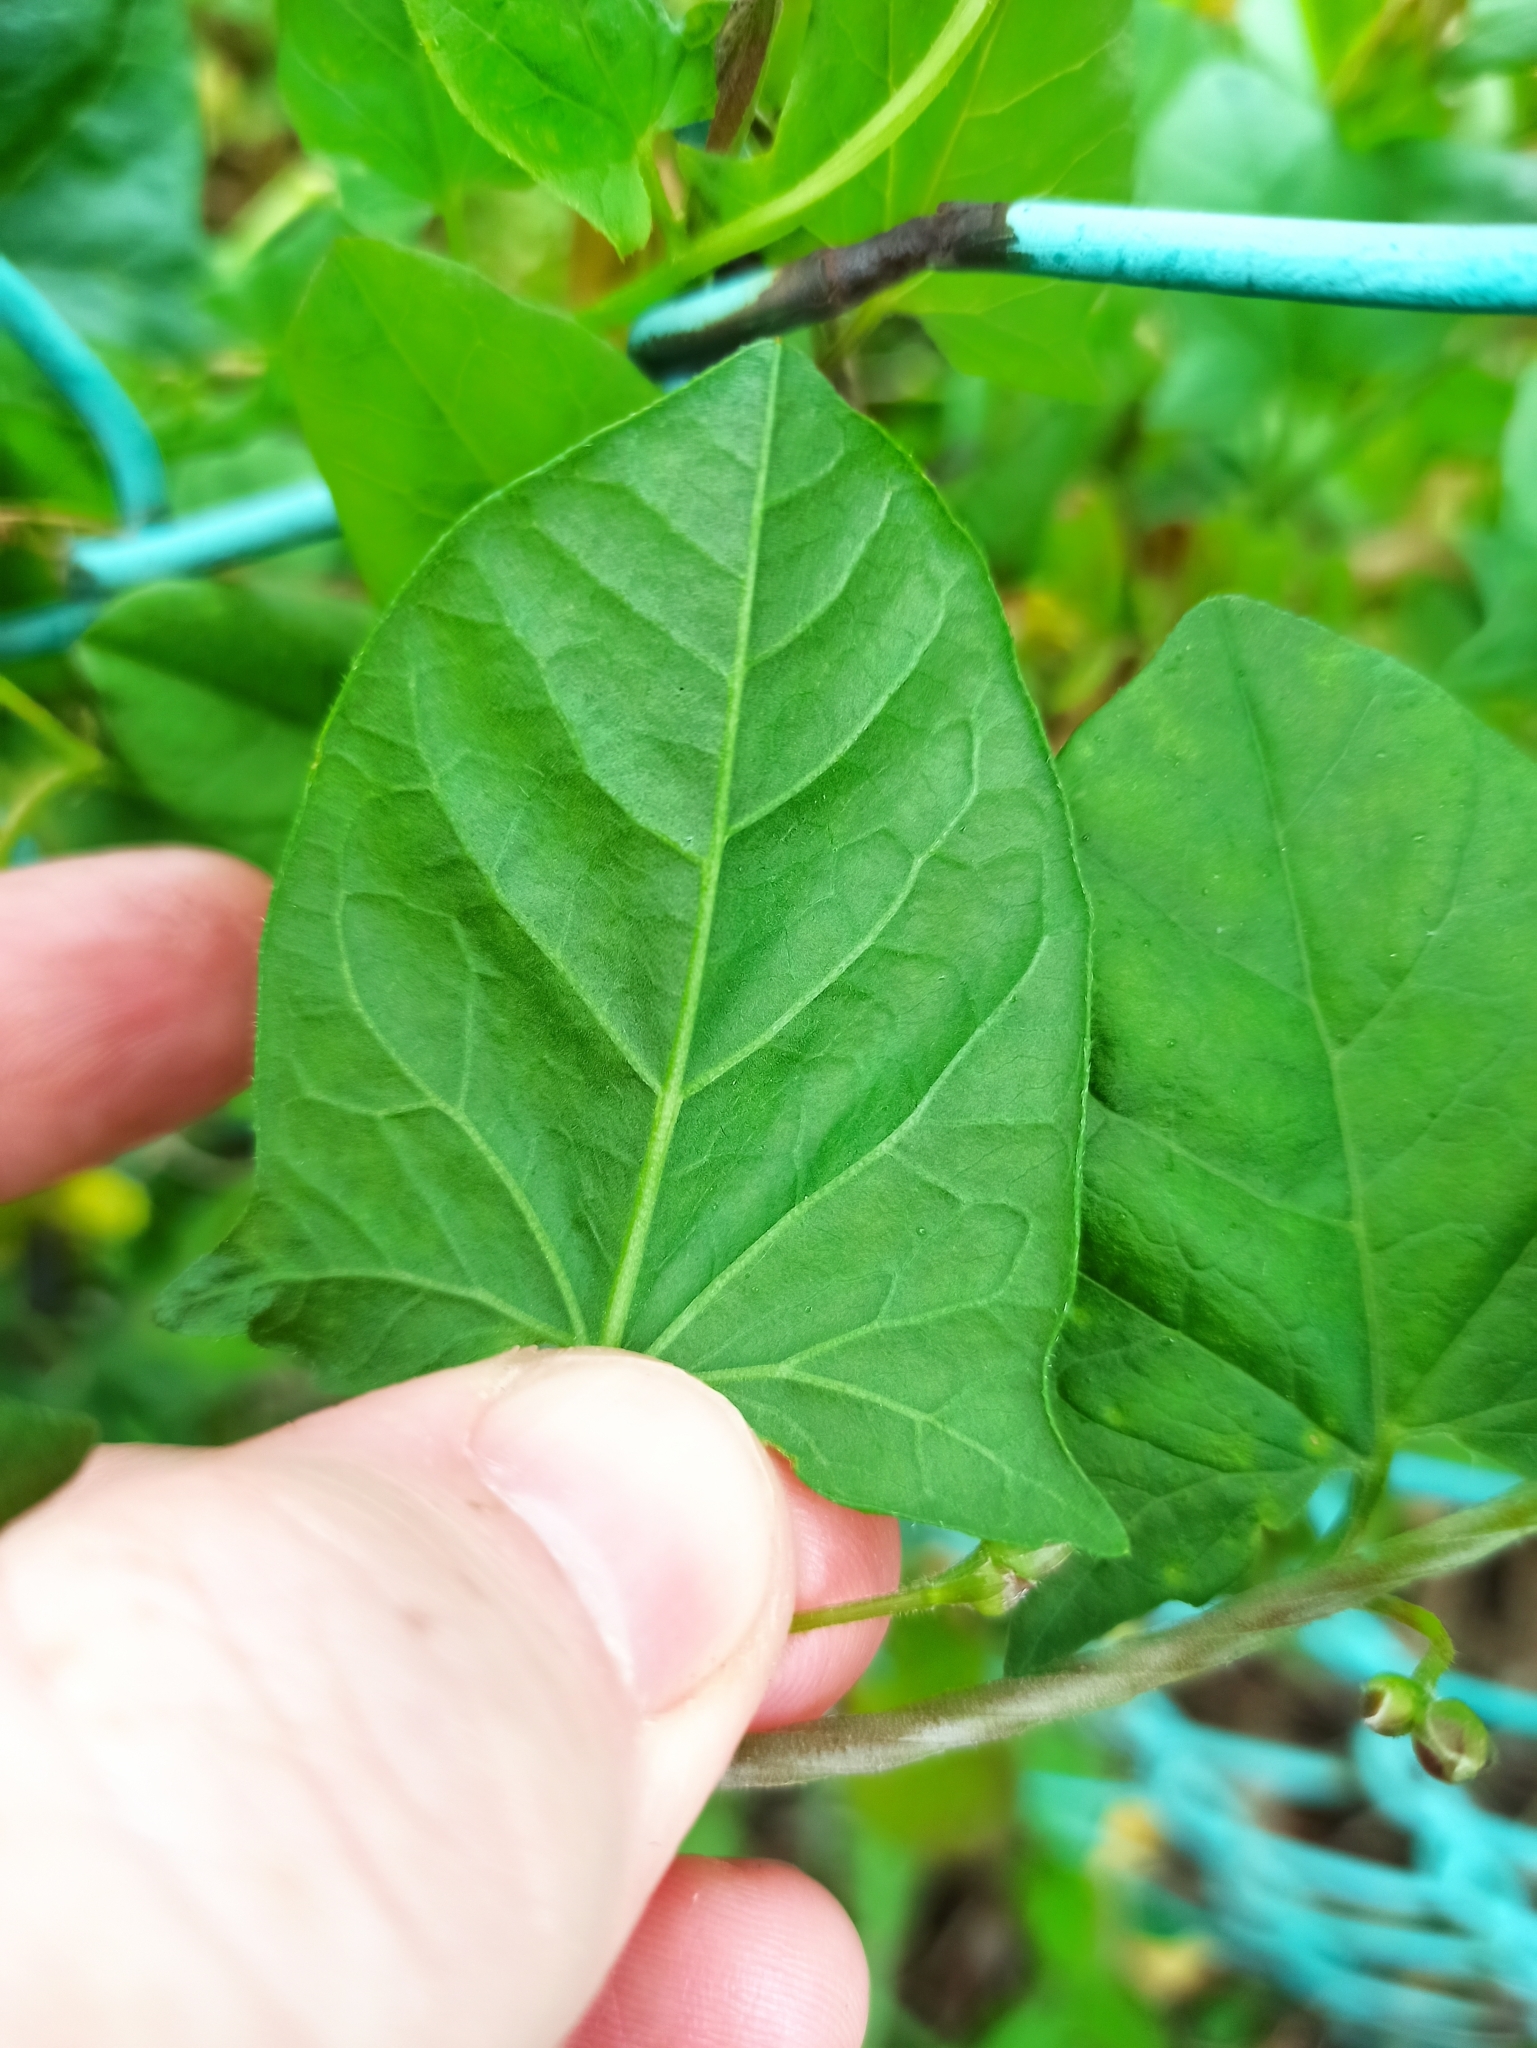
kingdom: Plantae
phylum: Tracheophyta
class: Magnoliopsida
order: Solanales
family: Convolvulaceae
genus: Convolvulus
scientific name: Convolvulus arvensis
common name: Field bindweed
